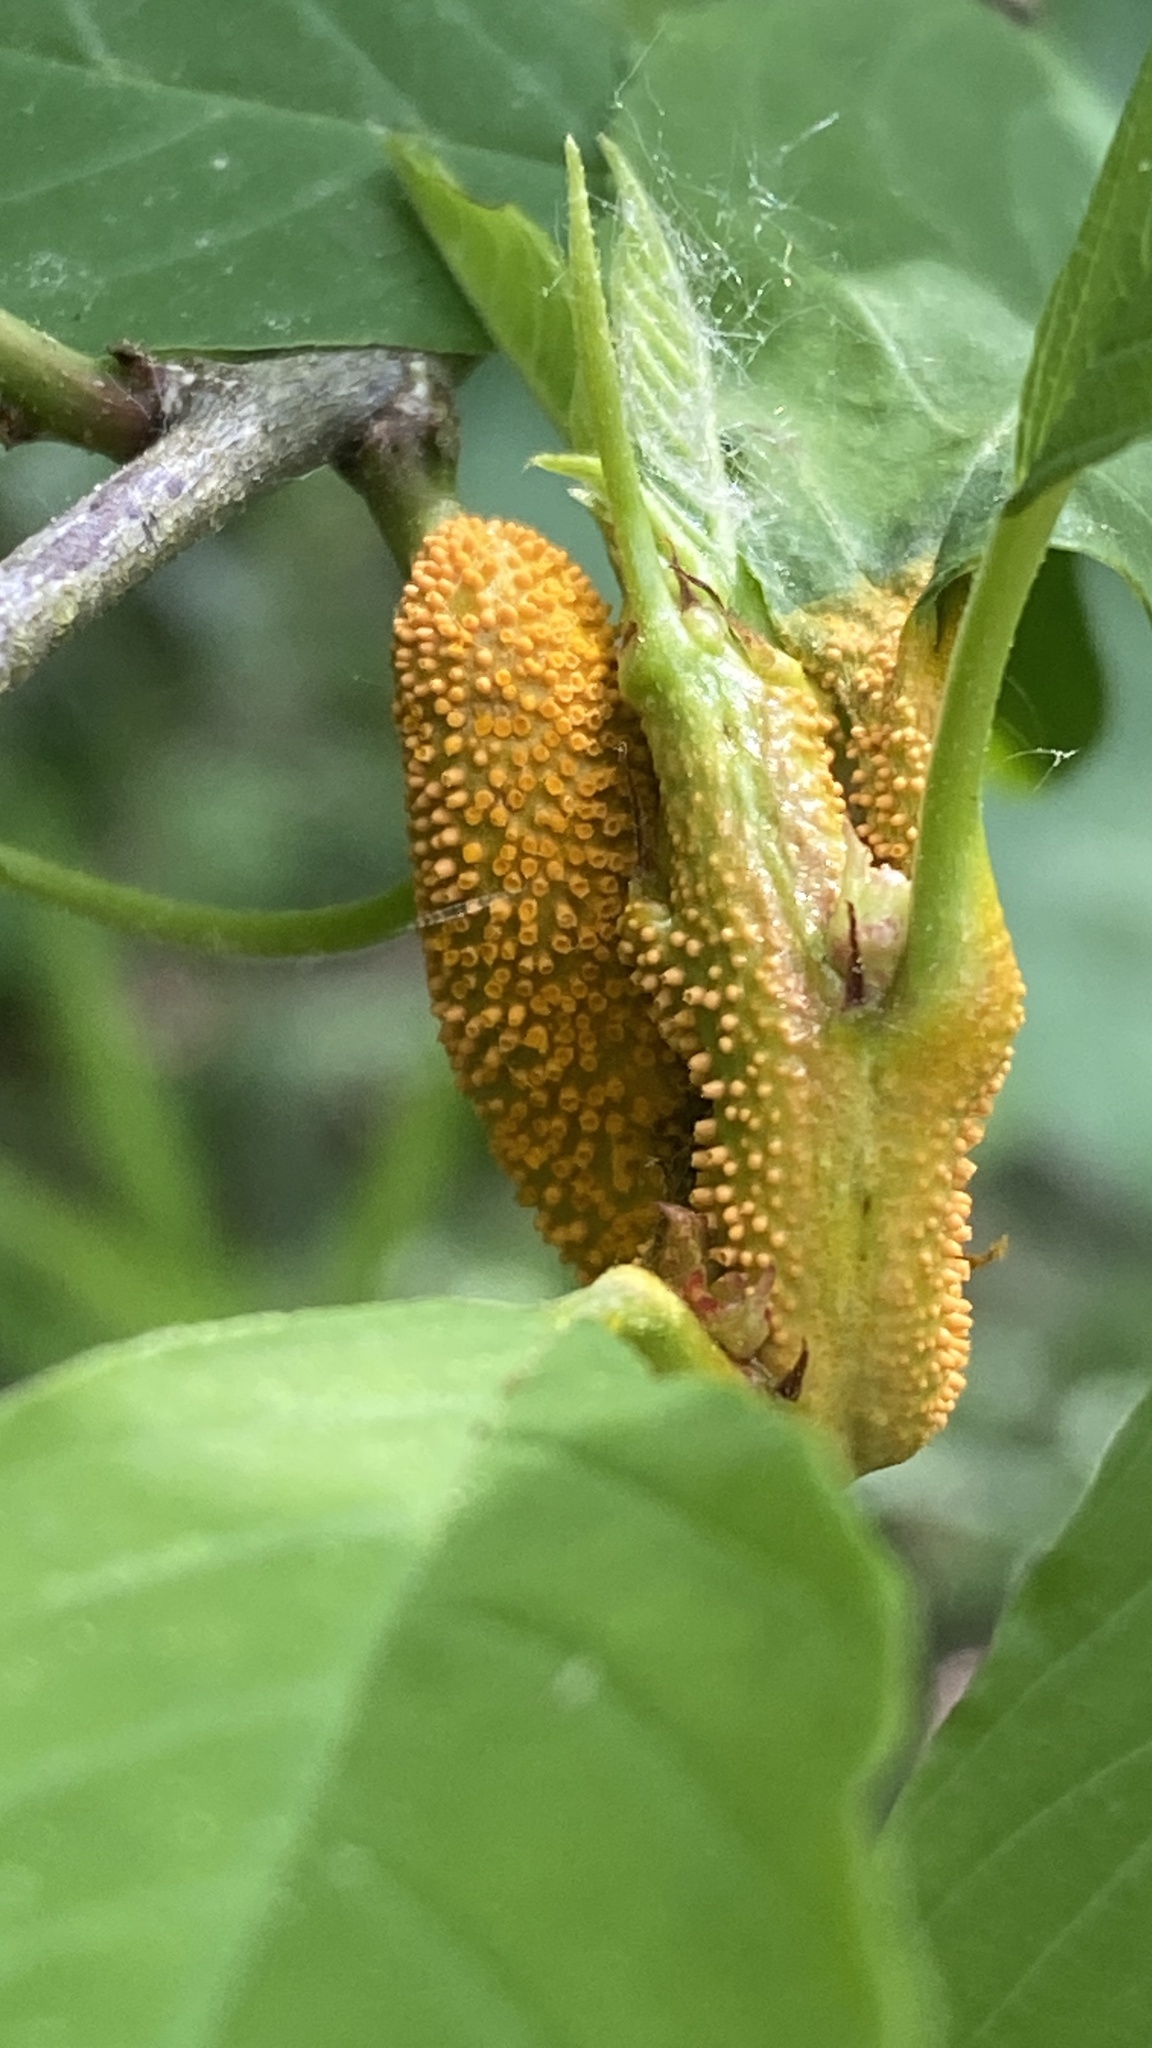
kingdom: Fungi
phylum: Basidiomycota
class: Pucciniomycetes
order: Pucciniales
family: Pucciniaceae
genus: Puccinia
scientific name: Puccinia coronata
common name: Crown rust
